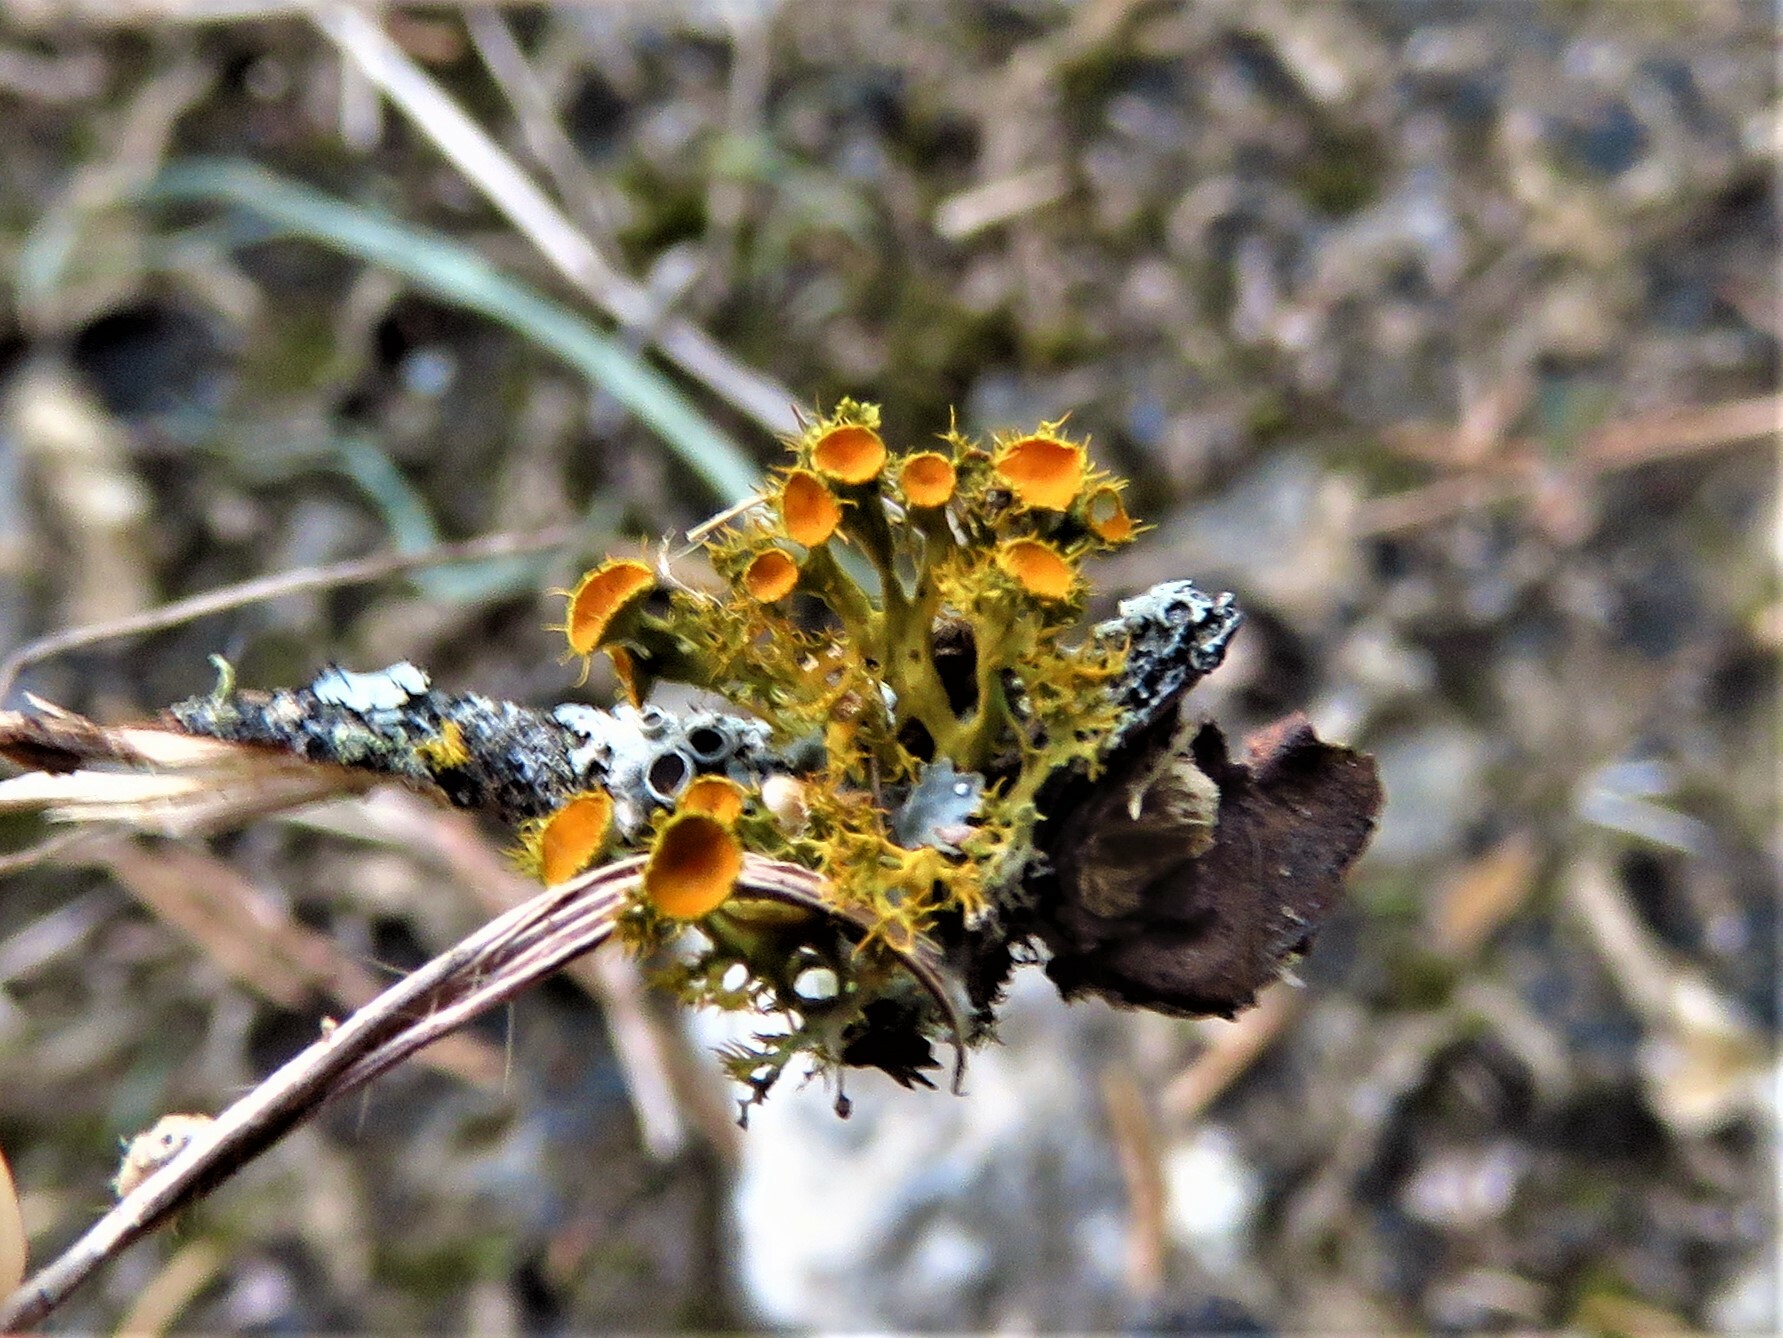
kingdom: Fungi
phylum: Ascomycota
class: Lecanoromycetes
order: Teloschistales
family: Teloschistaceae
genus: Niorma
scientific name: Niorma chrysophthalma
